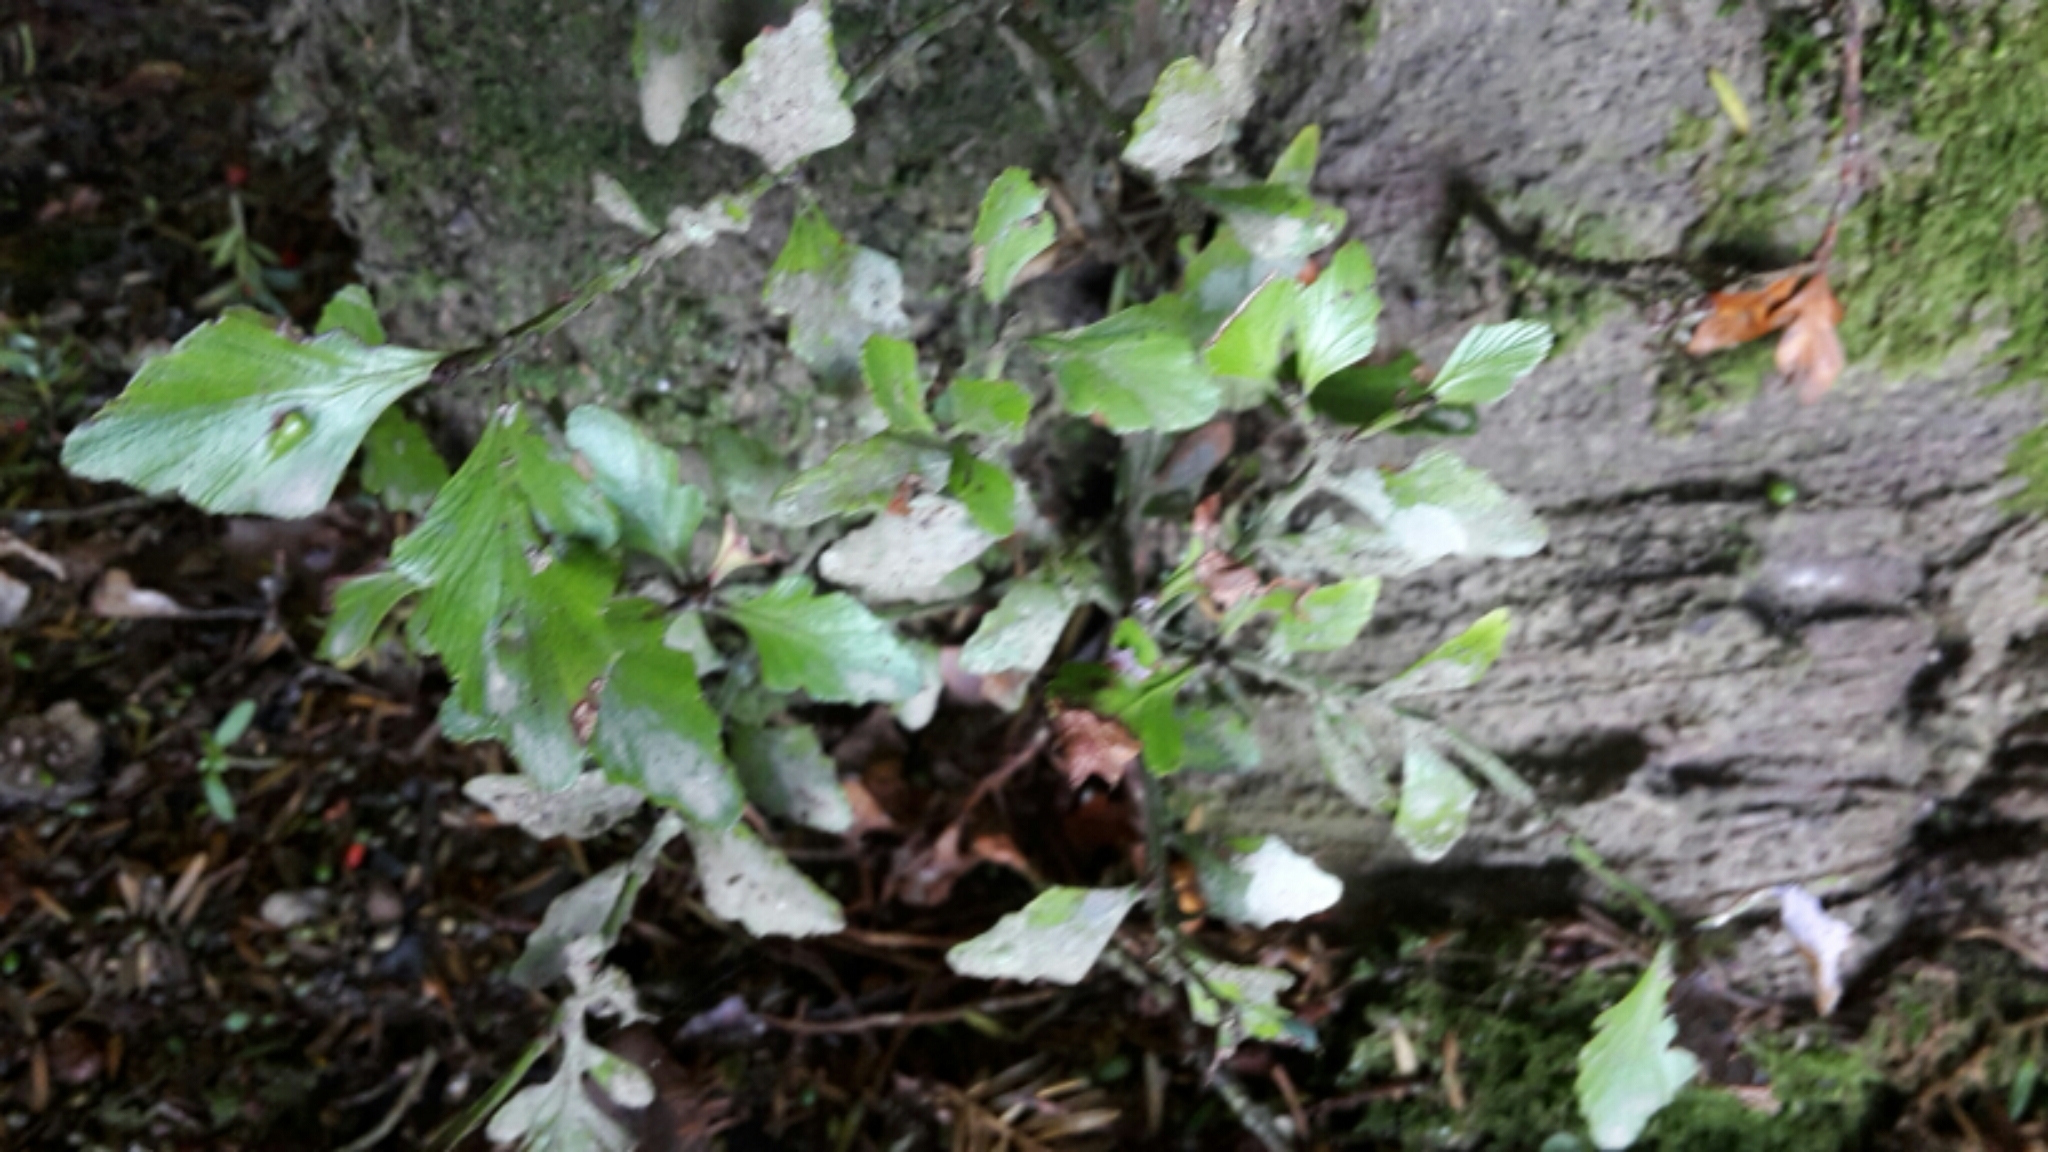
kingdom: Plantae
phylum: Tracheophyta
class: Pinopsida
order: Pinales
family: Phyllocladaceae
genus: Phyllocladus
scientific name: Phyllocladus trichomanoides
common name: Celery pine
